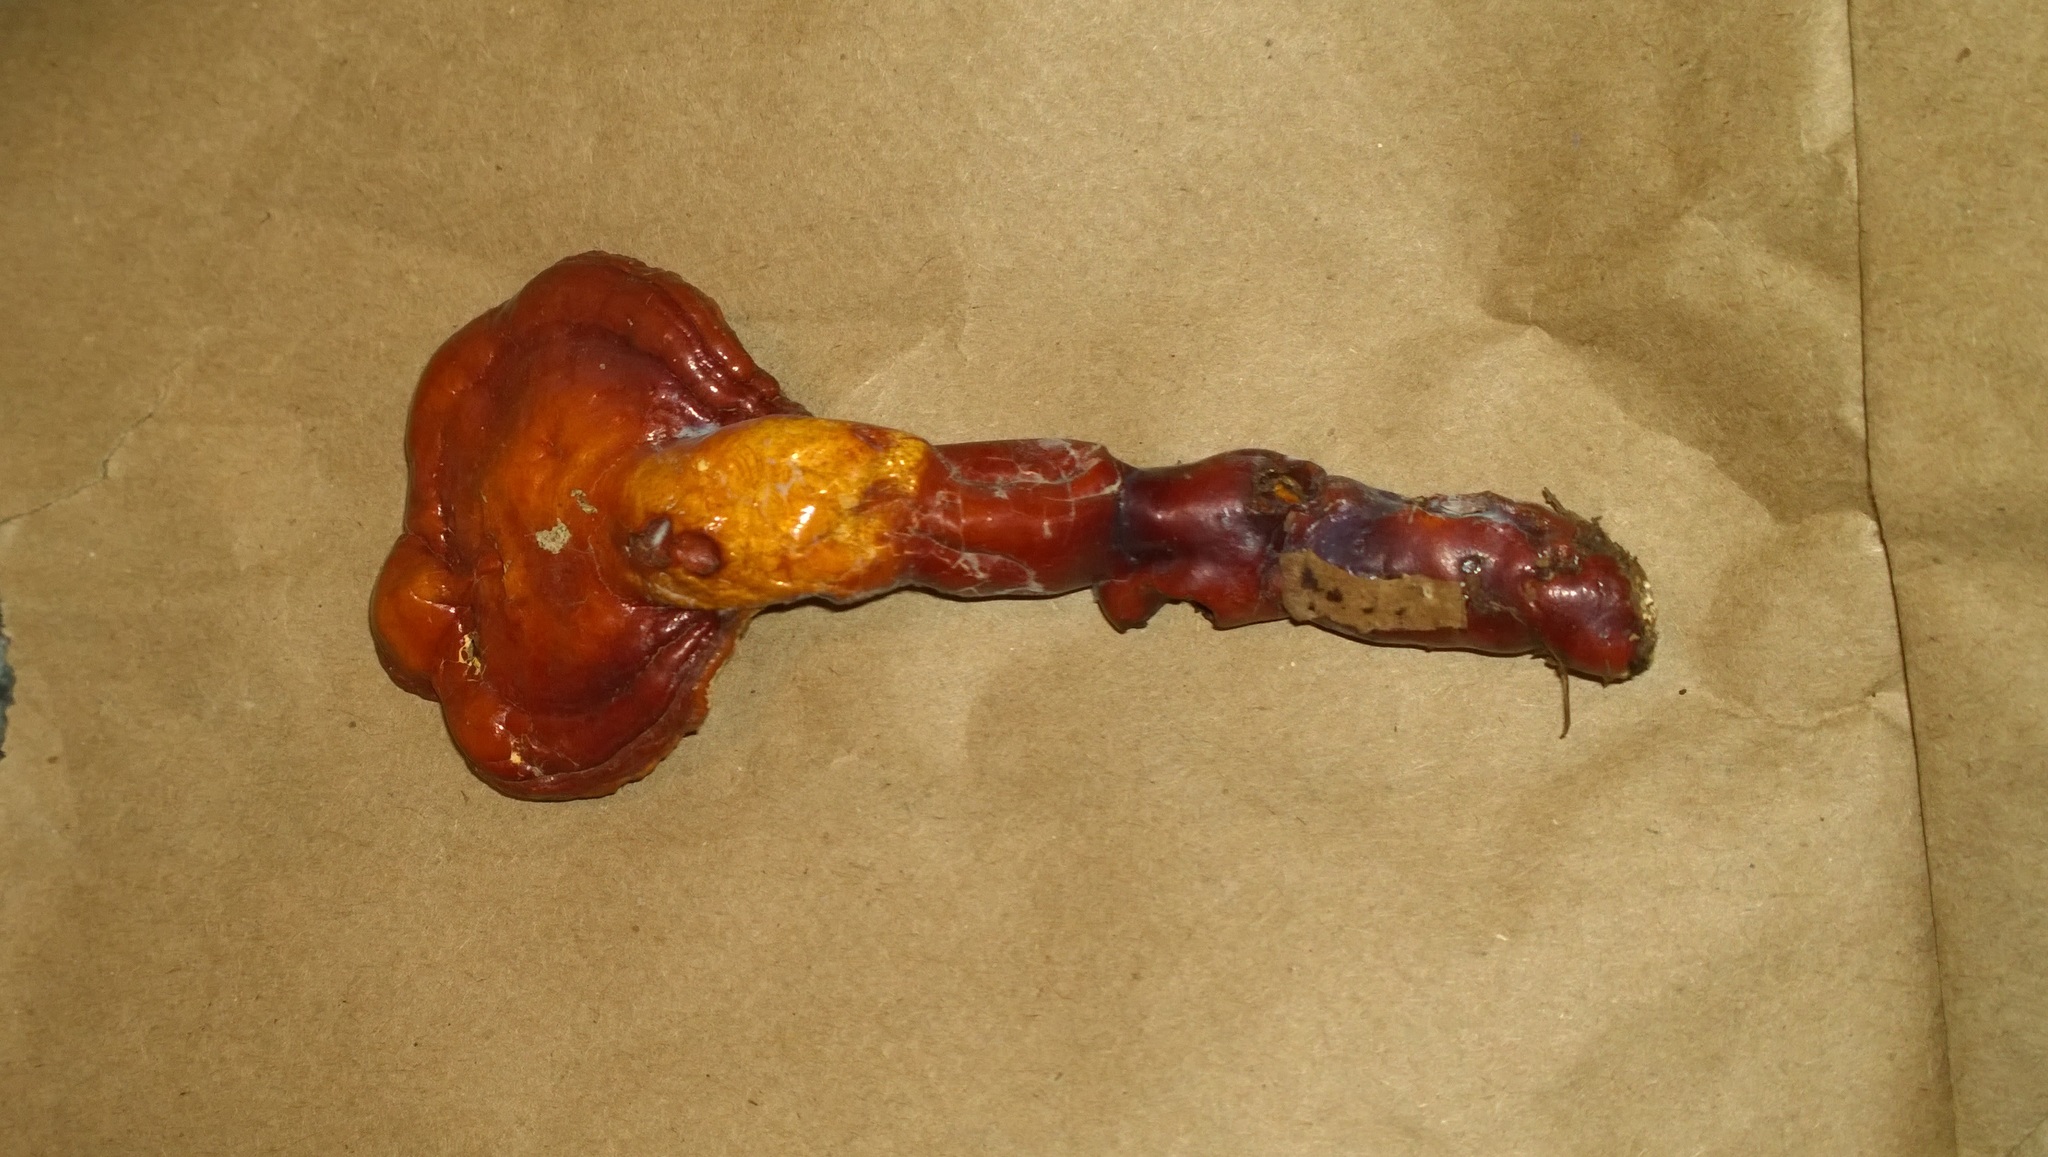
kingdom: Fungi
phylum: Basidiomycota
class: Agaricomycetes
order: Polyporales
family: Polyporaceae
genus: Ganoderma
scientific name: Ganoderma tsugae
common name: Hemlock varnish shelf
